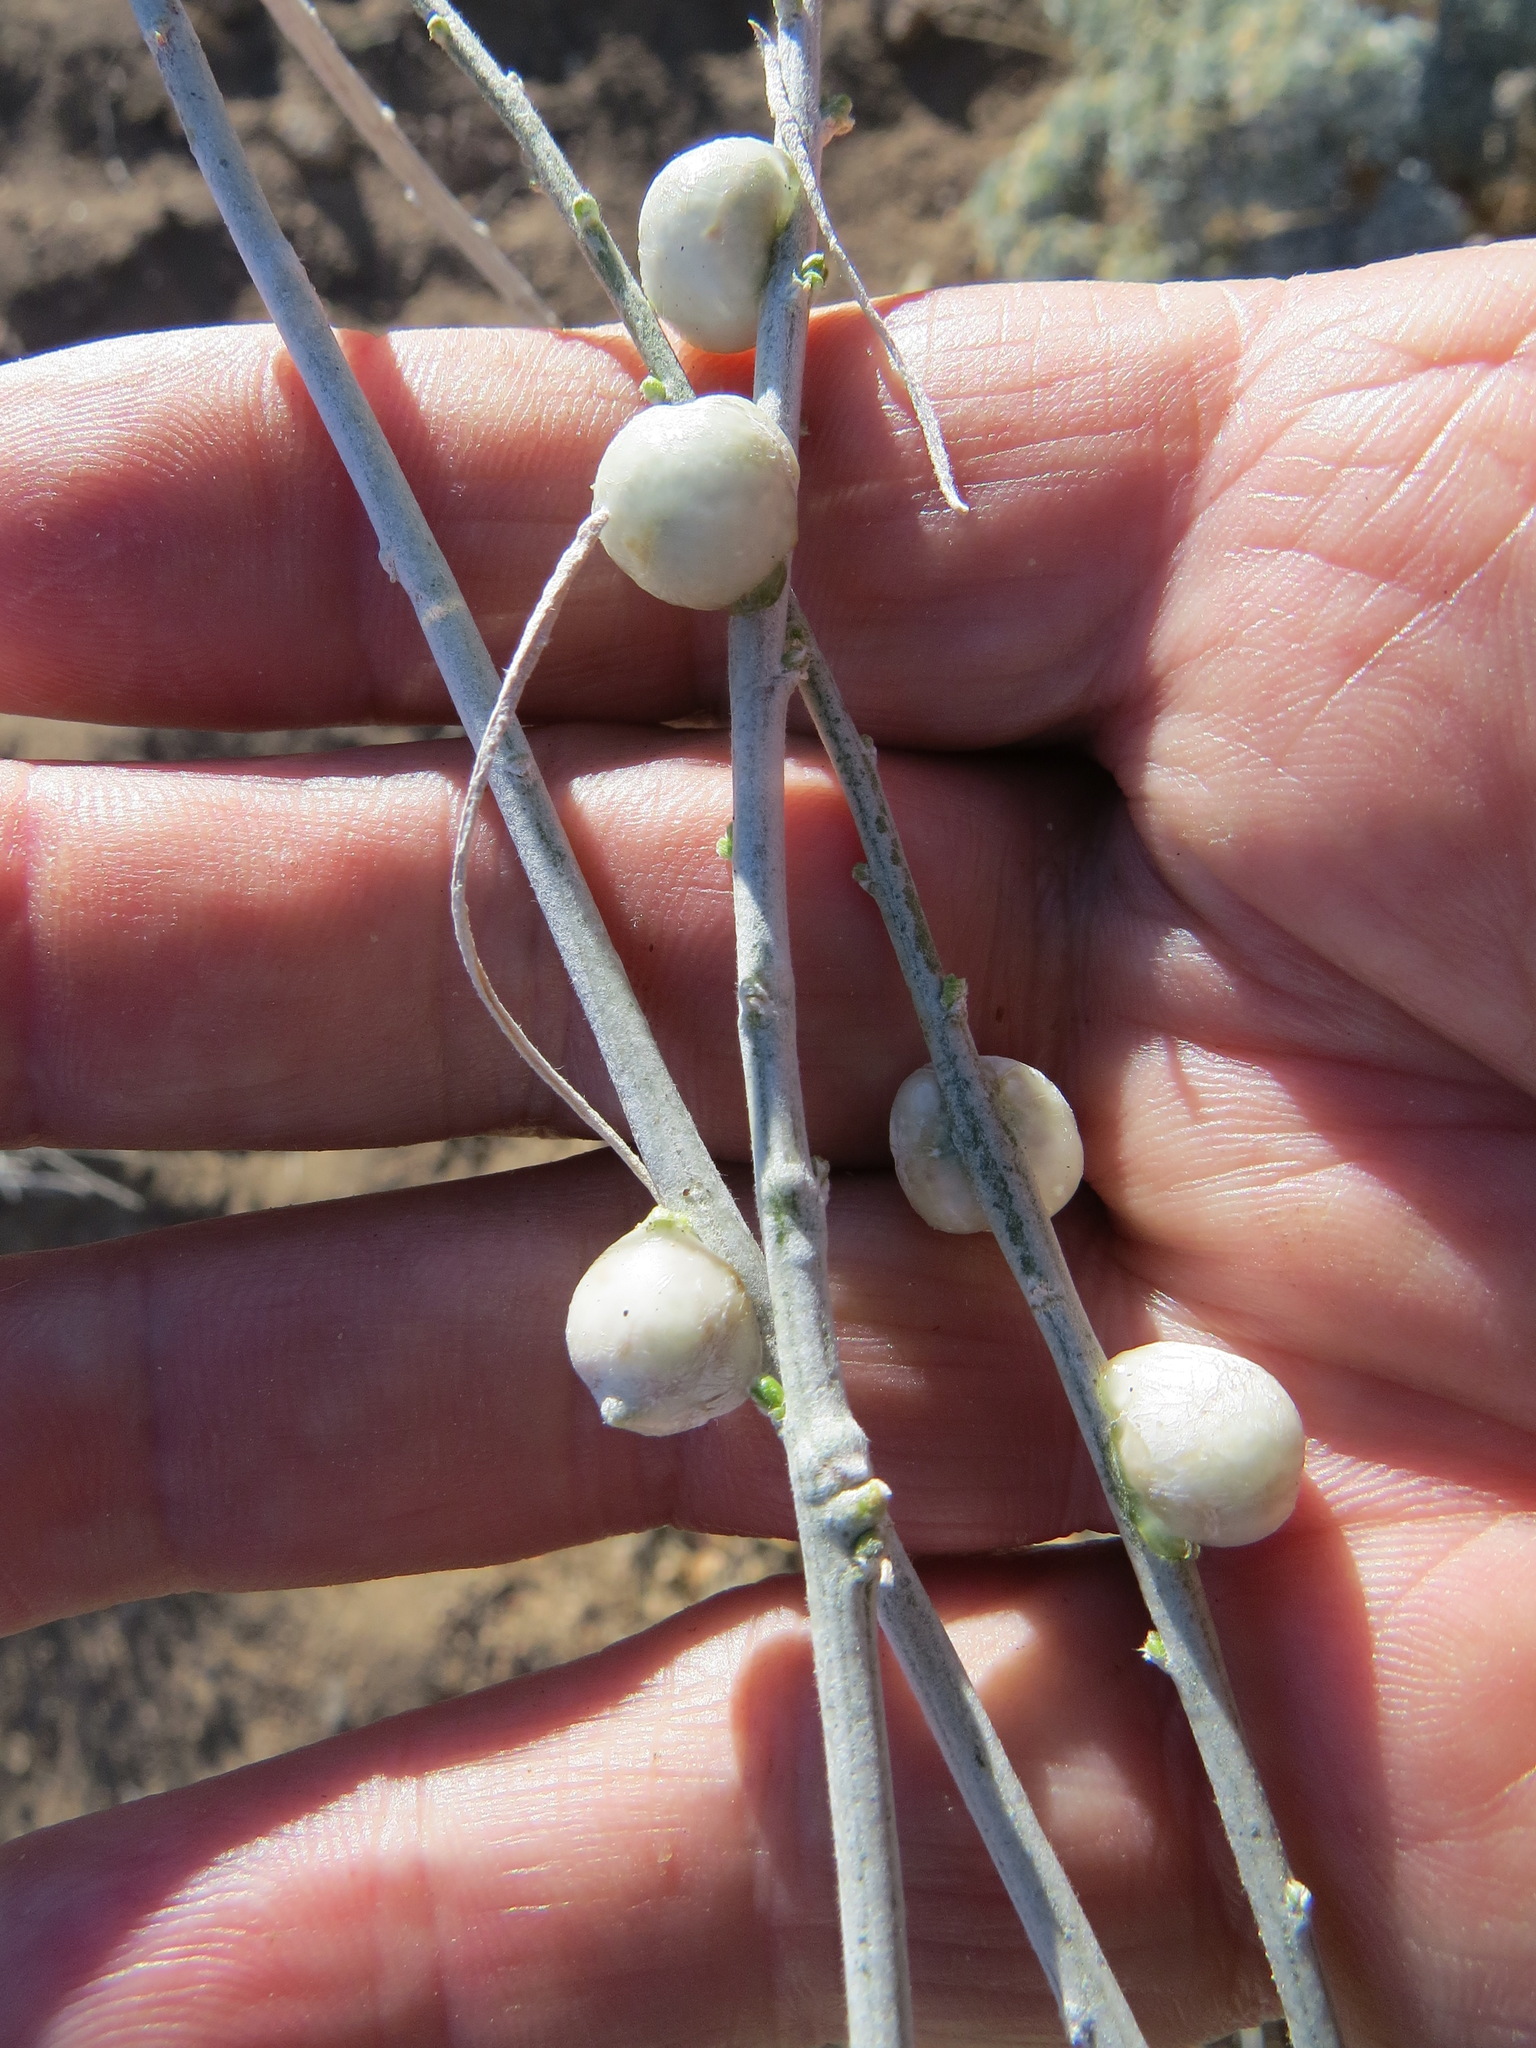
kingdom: Animalia
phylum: Arthropoda
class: Insecta
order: Diptera
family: Tephritidae
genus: Aciurina
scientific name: Aciurina trixa
